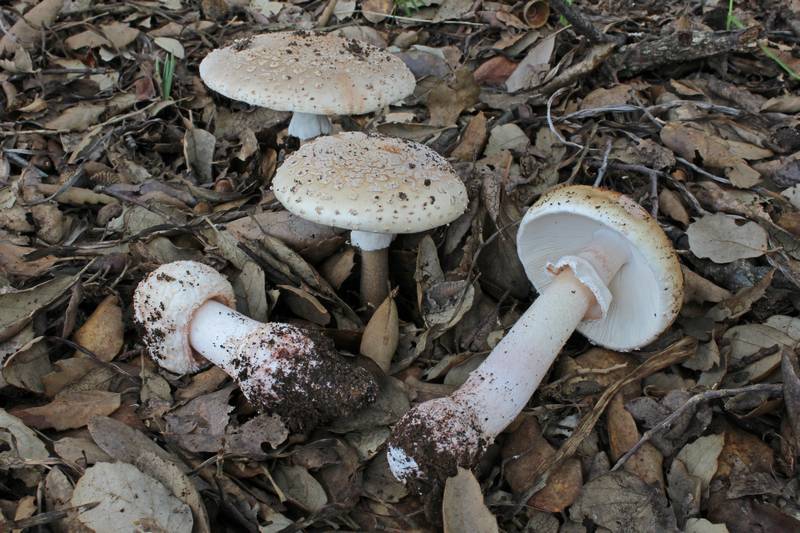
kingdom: Fungi
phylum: Basidiomycota
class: Agaricomycetes
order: Agaricales
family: Amanitaceae
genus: Amanita
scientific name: Amanita rubescens
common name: Blusher
